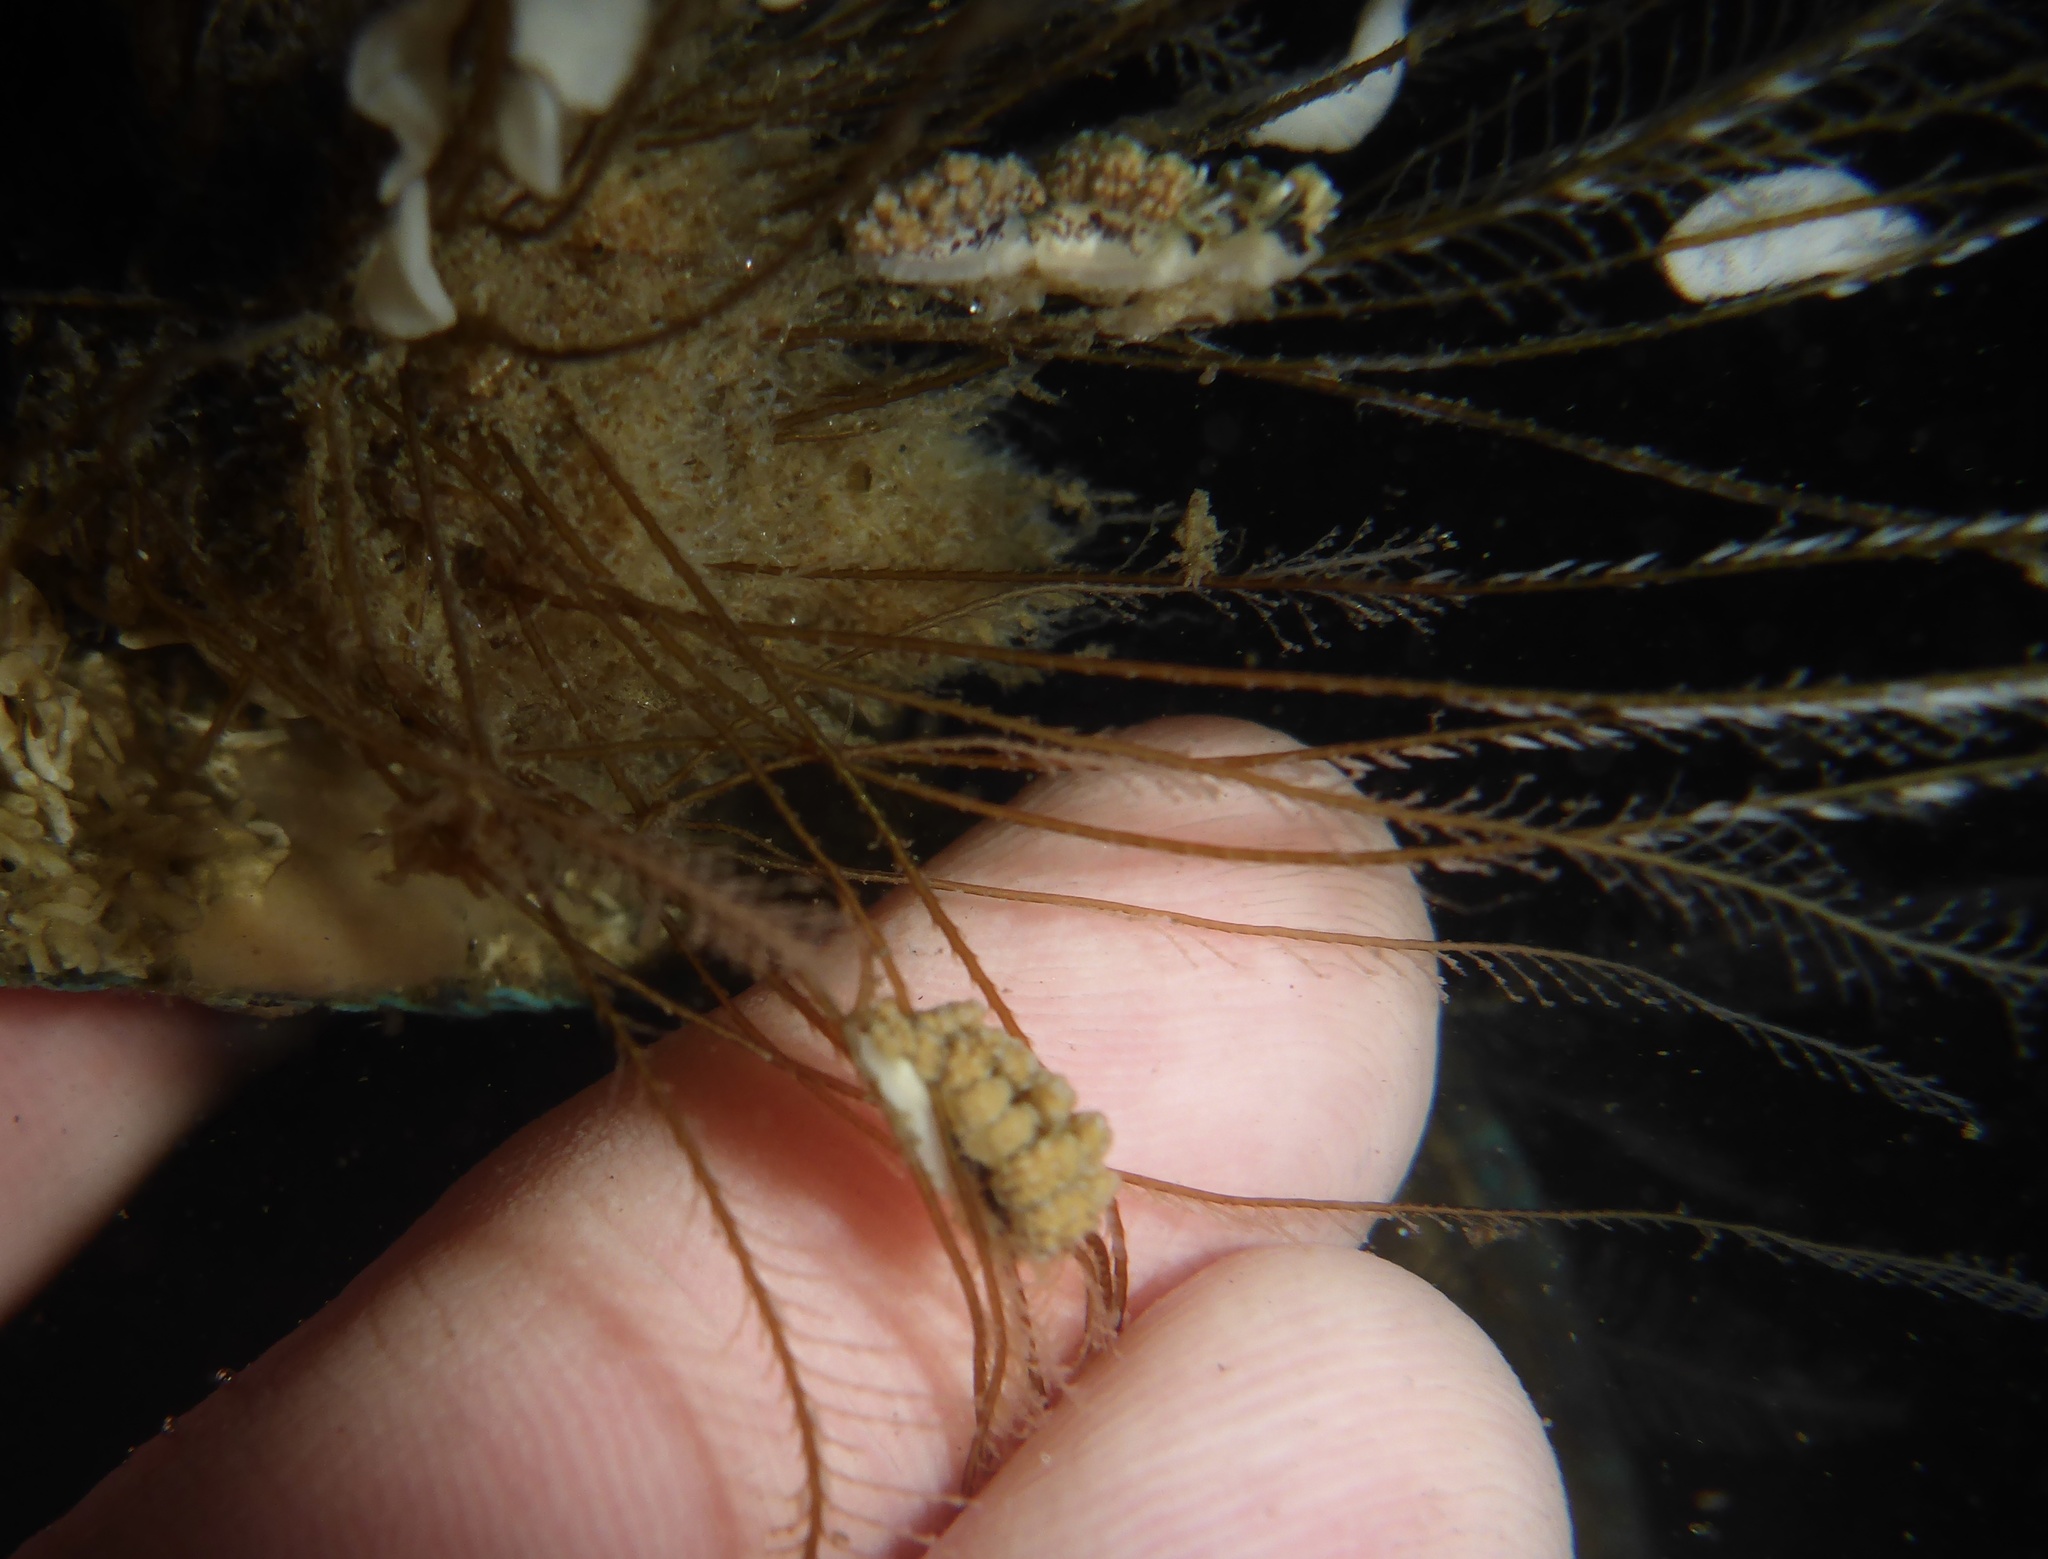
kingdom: Animalia
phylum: Mollusca
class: Gastropoda
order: Nudibranchia
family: Dotidae
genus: Doto
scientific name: Doto kya
